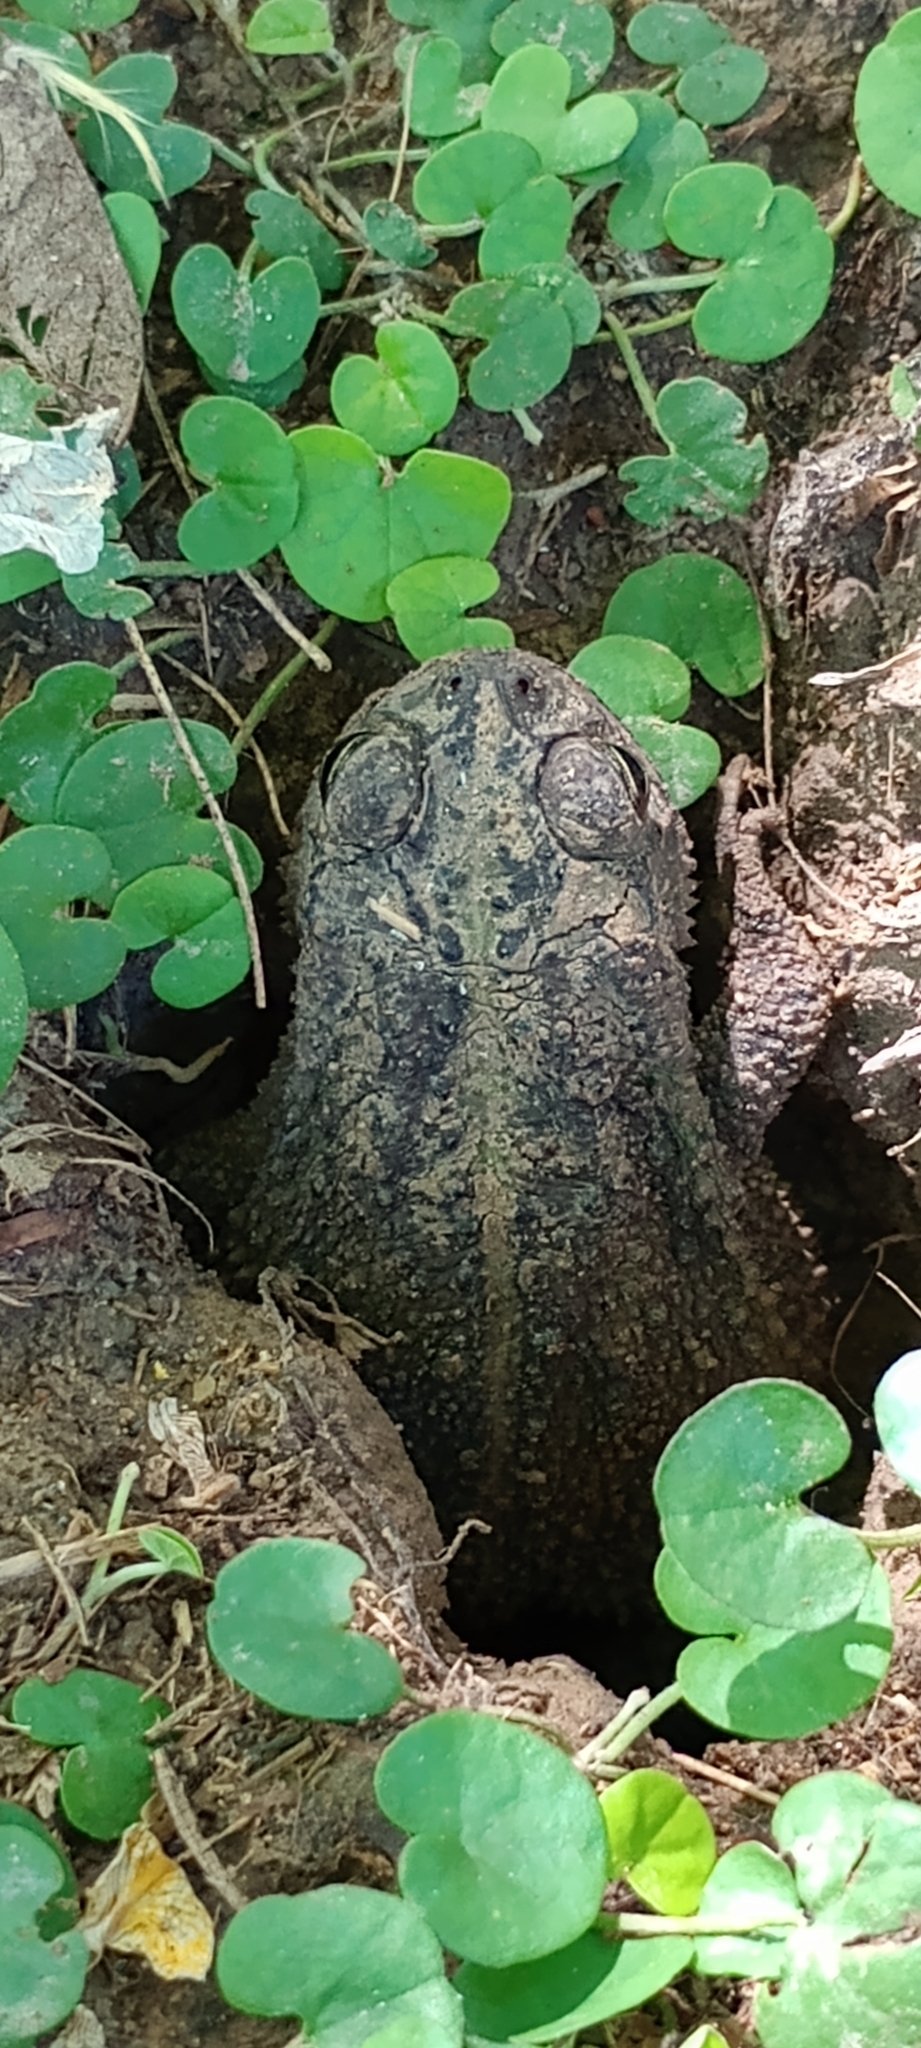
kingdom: Animalia
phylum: Chordata
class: Amphibia
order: Anura
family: Bufonidae
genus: Rhinella
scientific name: Rhinella dorbignyi
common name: D´orbigny’s toad
